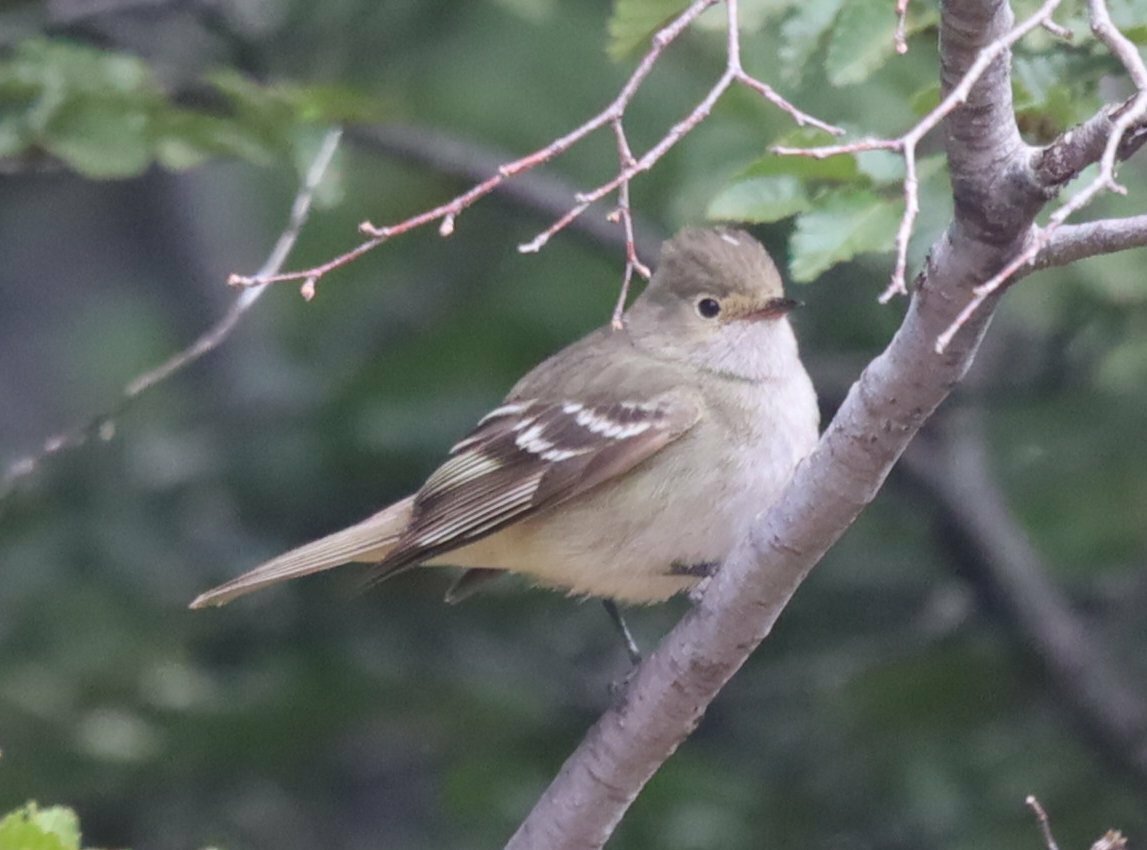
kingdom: Animalia
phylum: Chordata
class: Aves
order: Passeriformes
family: Tyrannidae
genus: Elaenia
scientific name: Elaenia albiceps
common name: White-crested elaenia
